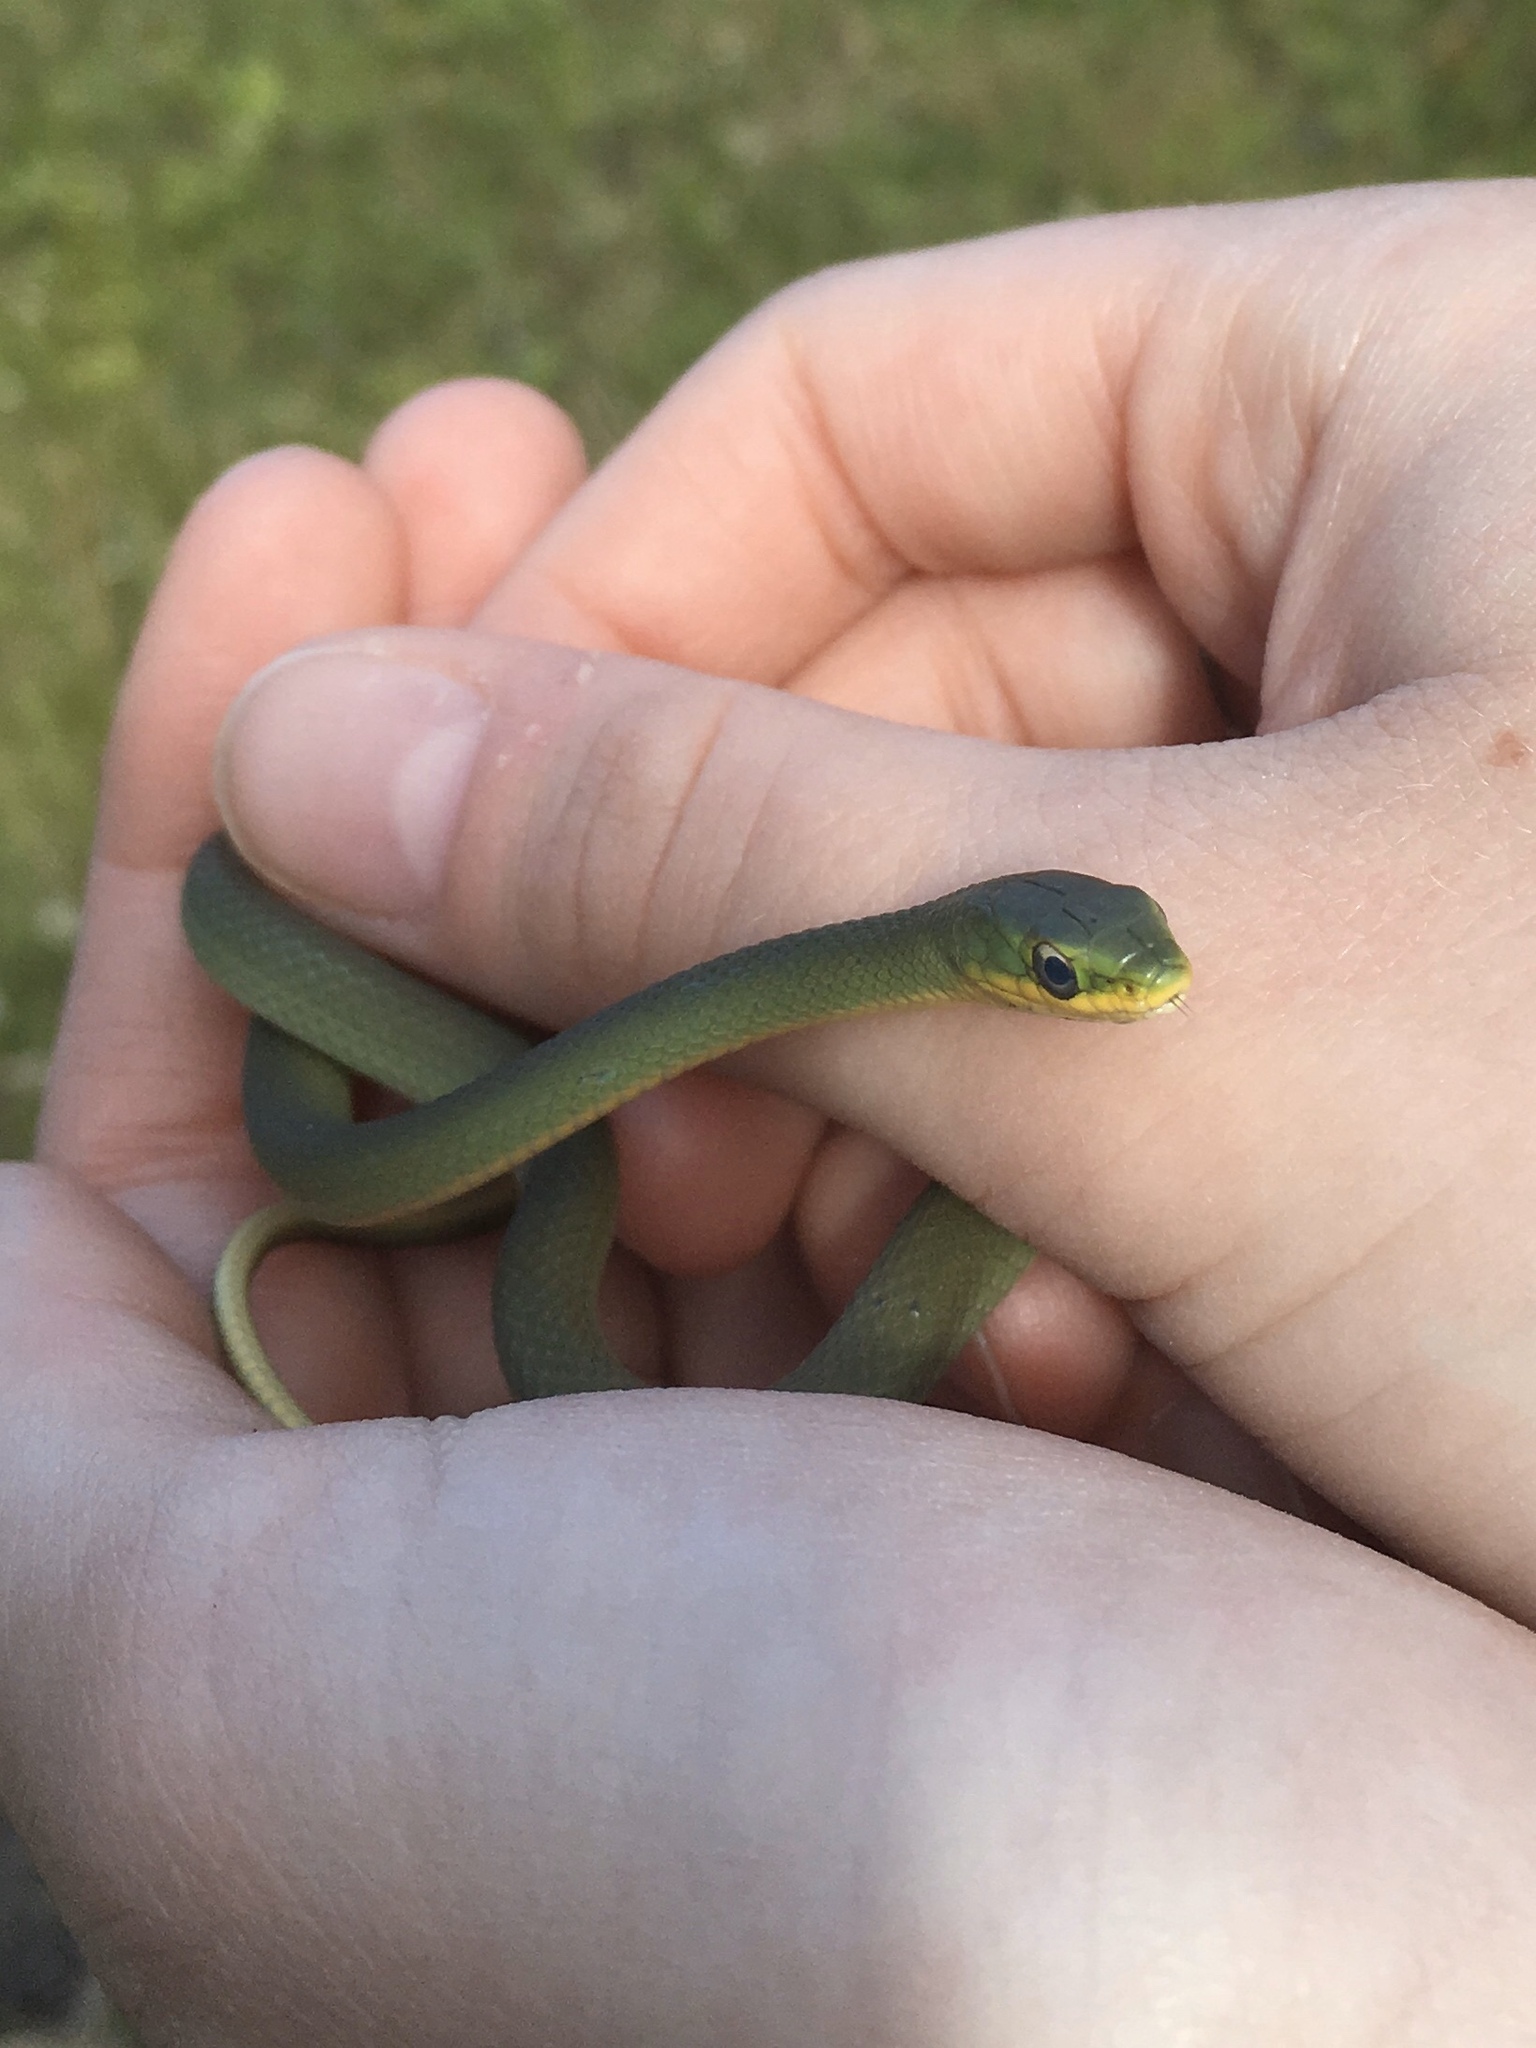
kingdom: Animalia
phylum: Chordata
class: Squamata
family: Colubridae
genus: Opheodrys
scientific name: Opheodrys aestivus
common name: Rough greensnake
